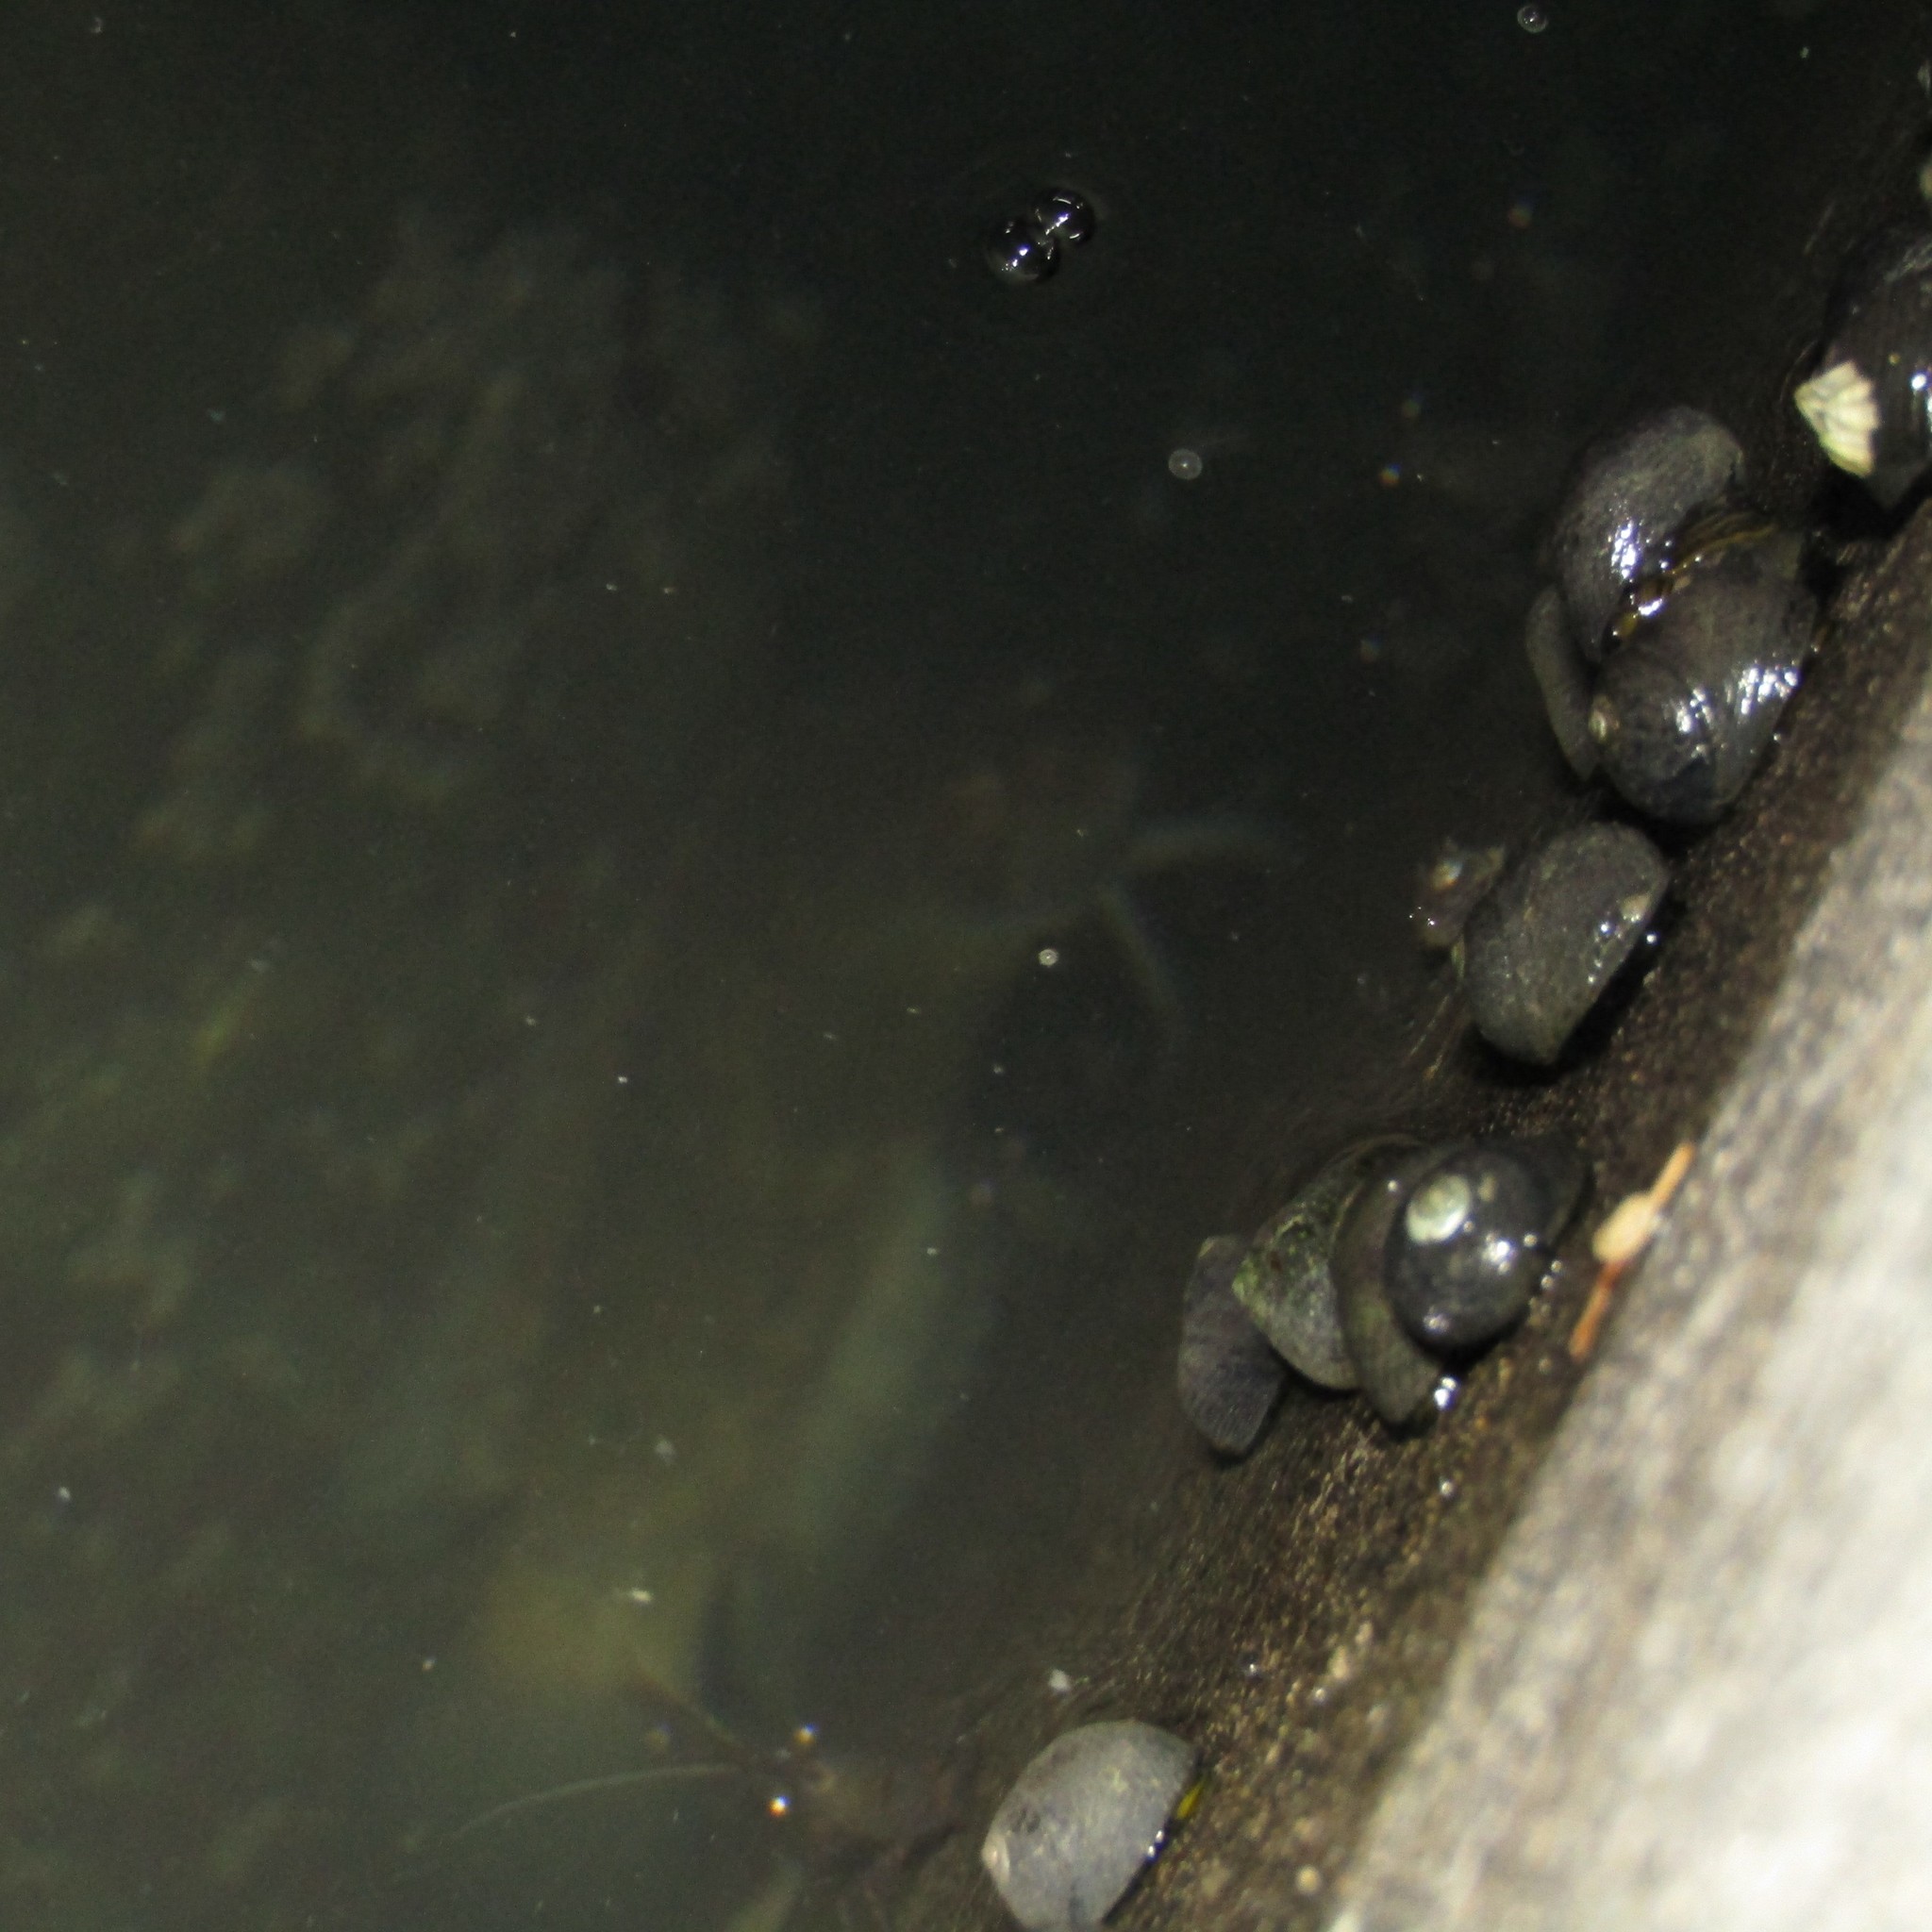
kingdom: Animalia
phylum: Mollusca
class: Gastropoda
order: Trochida
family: Trochidae
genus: Diloma
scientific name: Diloma aethiops
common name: Scorched monodont
